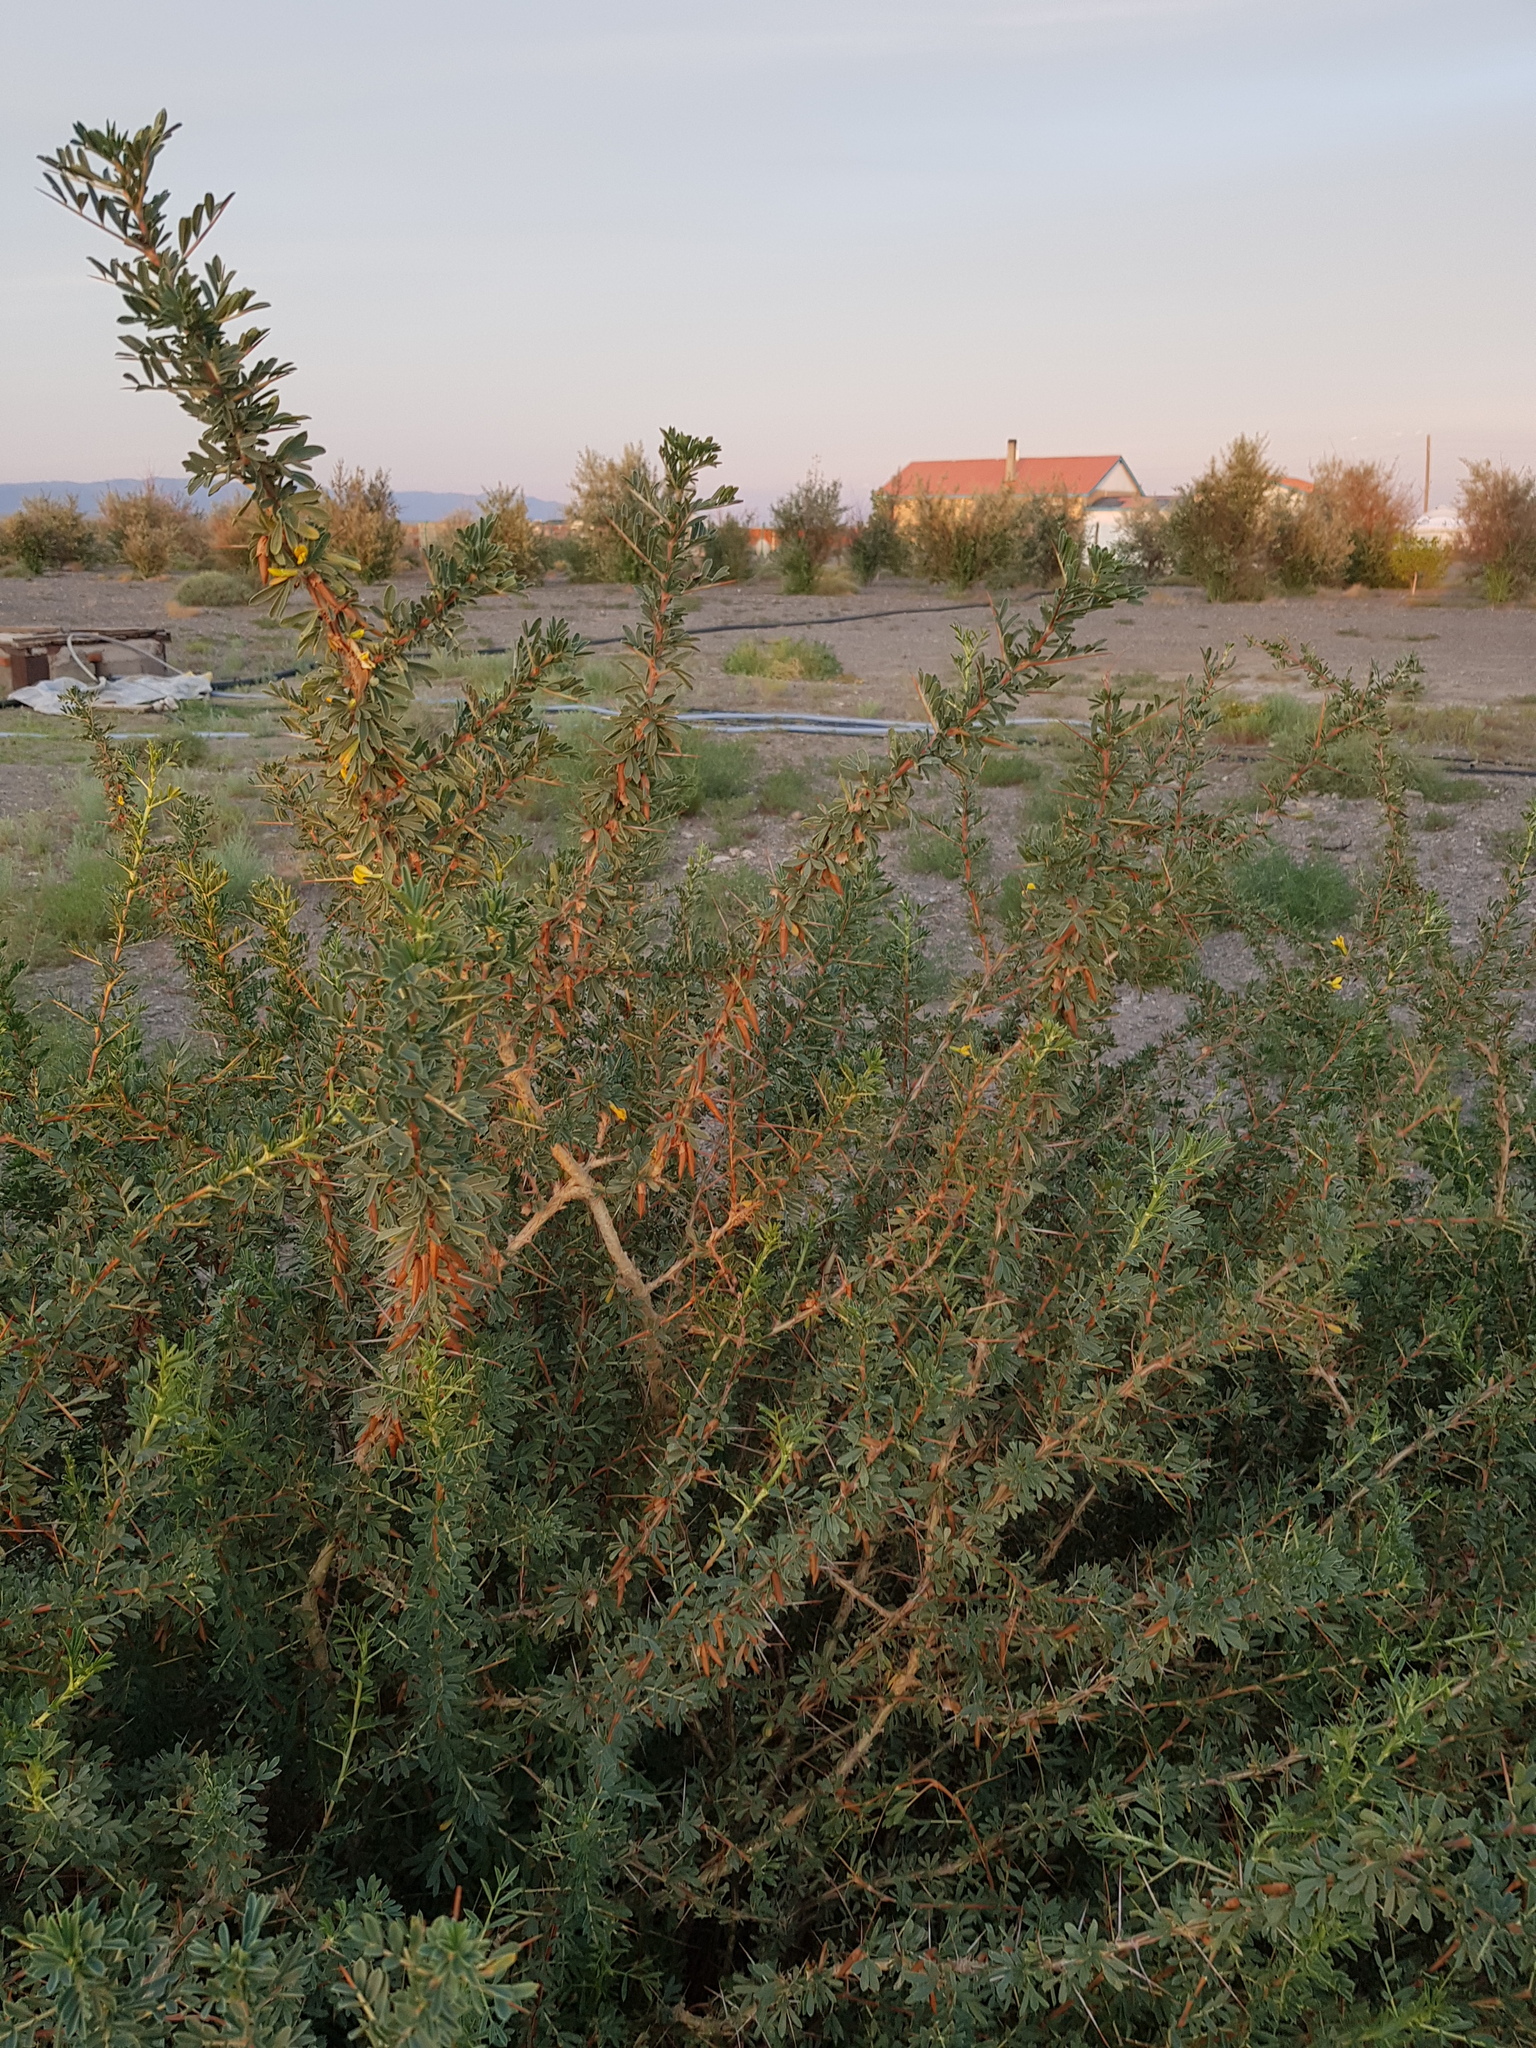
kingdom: Plantae
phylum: Tracheophyta
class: Magnoliopsida
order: Fabales
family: Fabaceae
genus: Caragana
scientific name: Caragana spinosa
